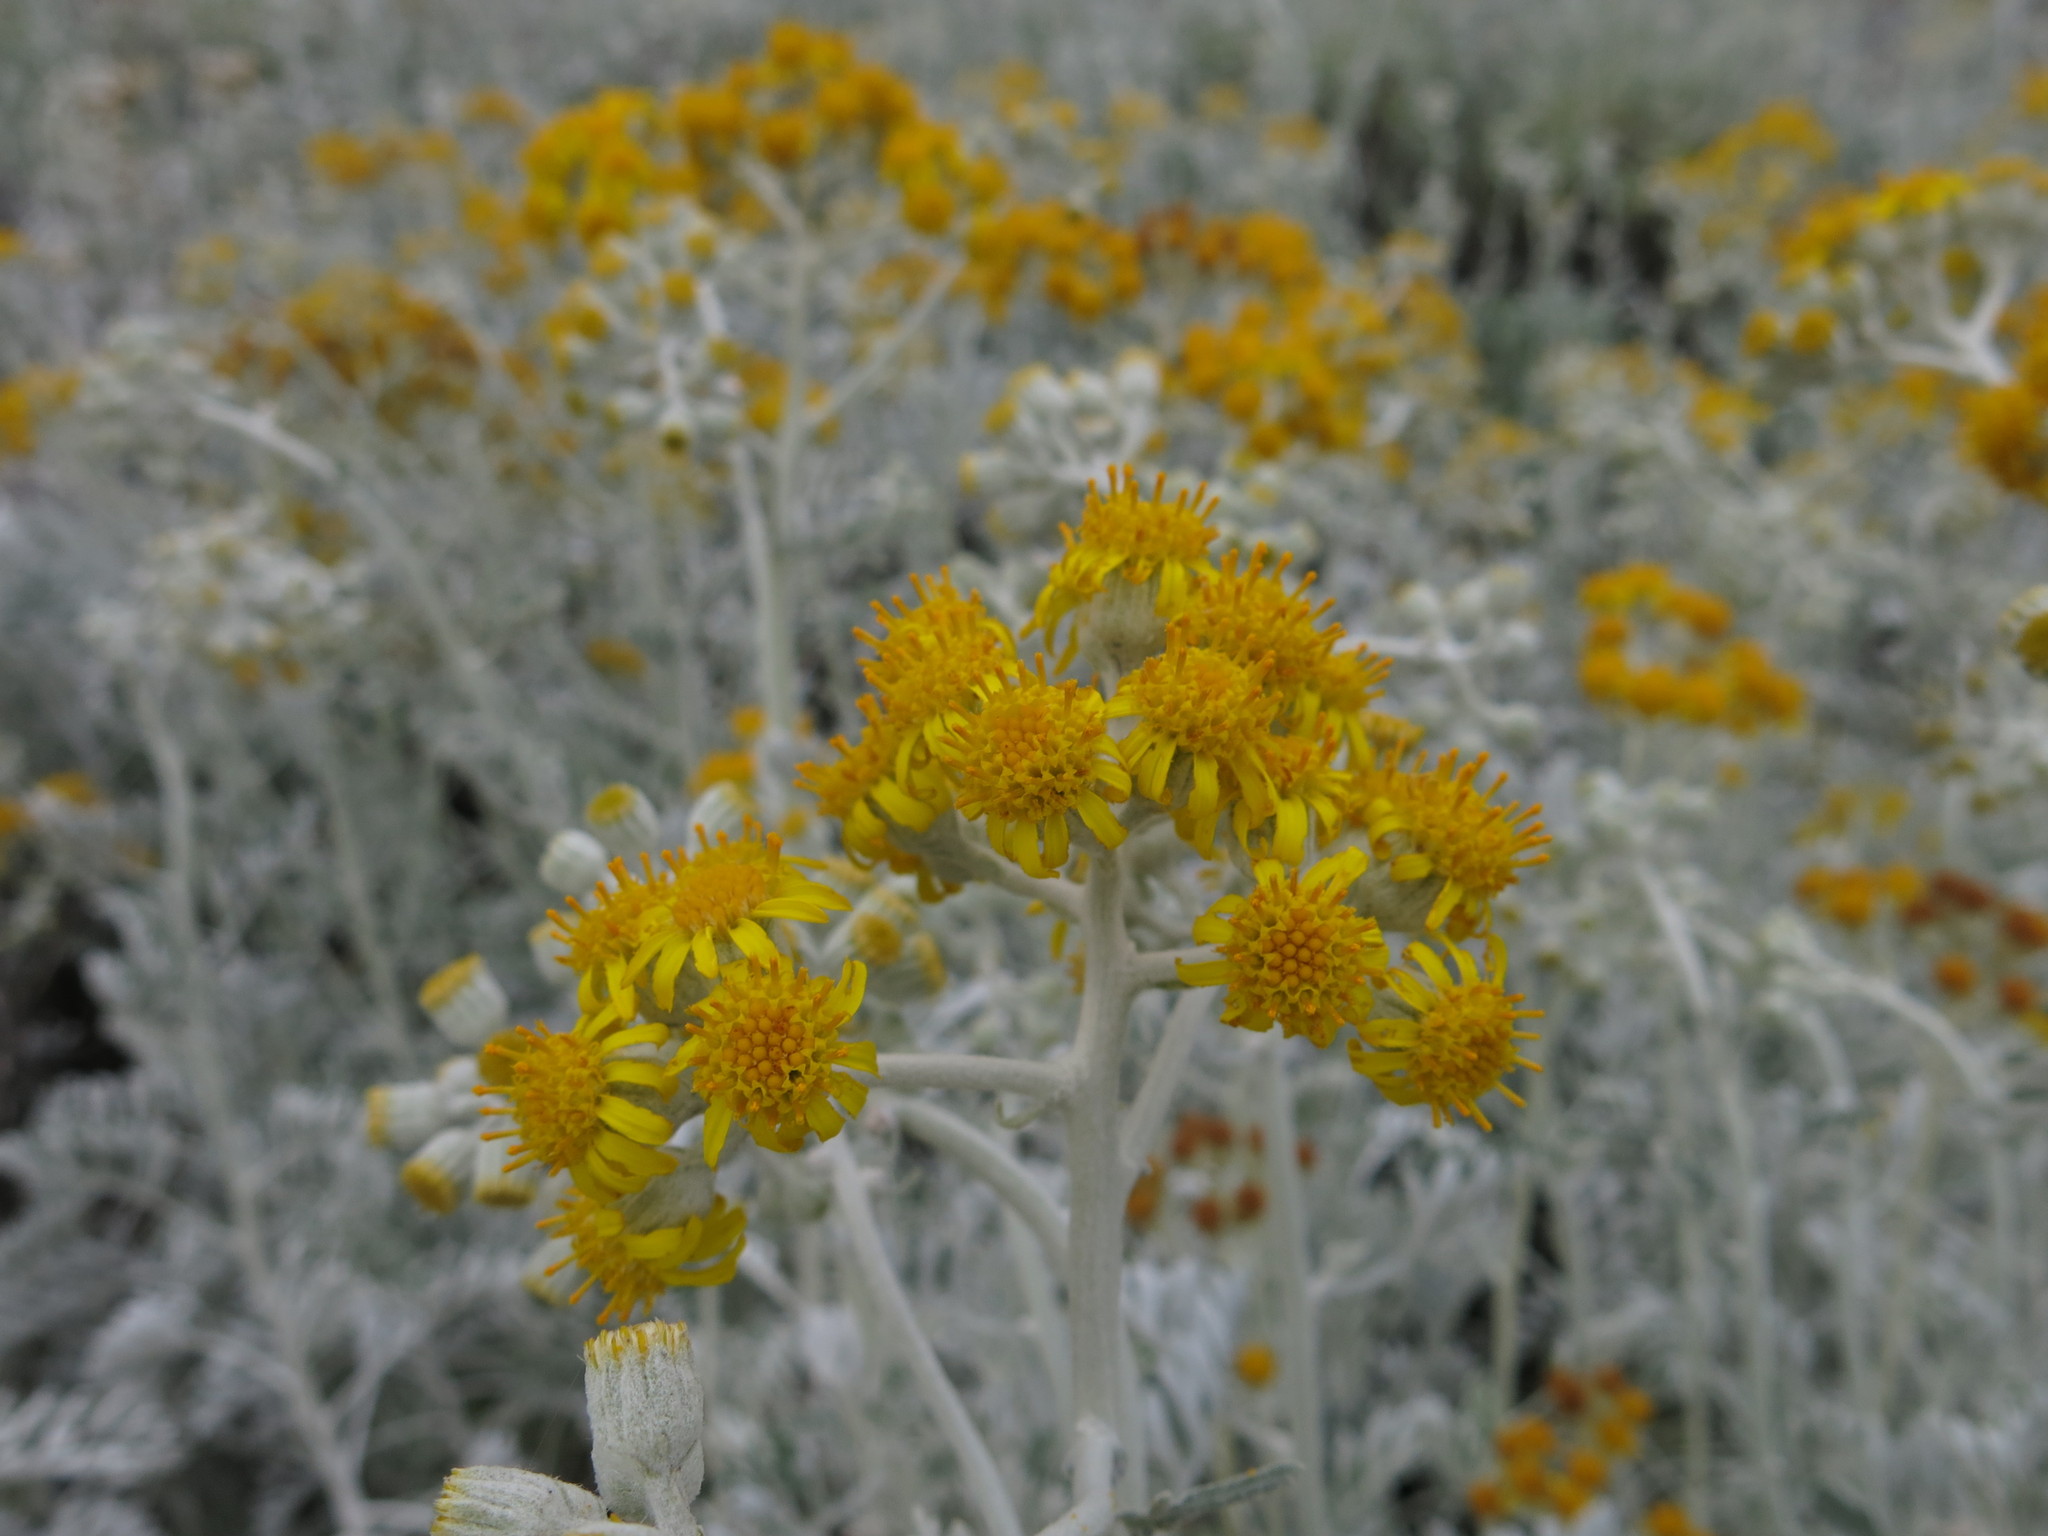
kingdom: Plantae
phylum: Tracheophyta
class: Magnoliopsida
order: Asterales
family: Asteraceae
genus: Jacobaea
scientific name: Jacobaea maritima
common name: Silver ragwort
